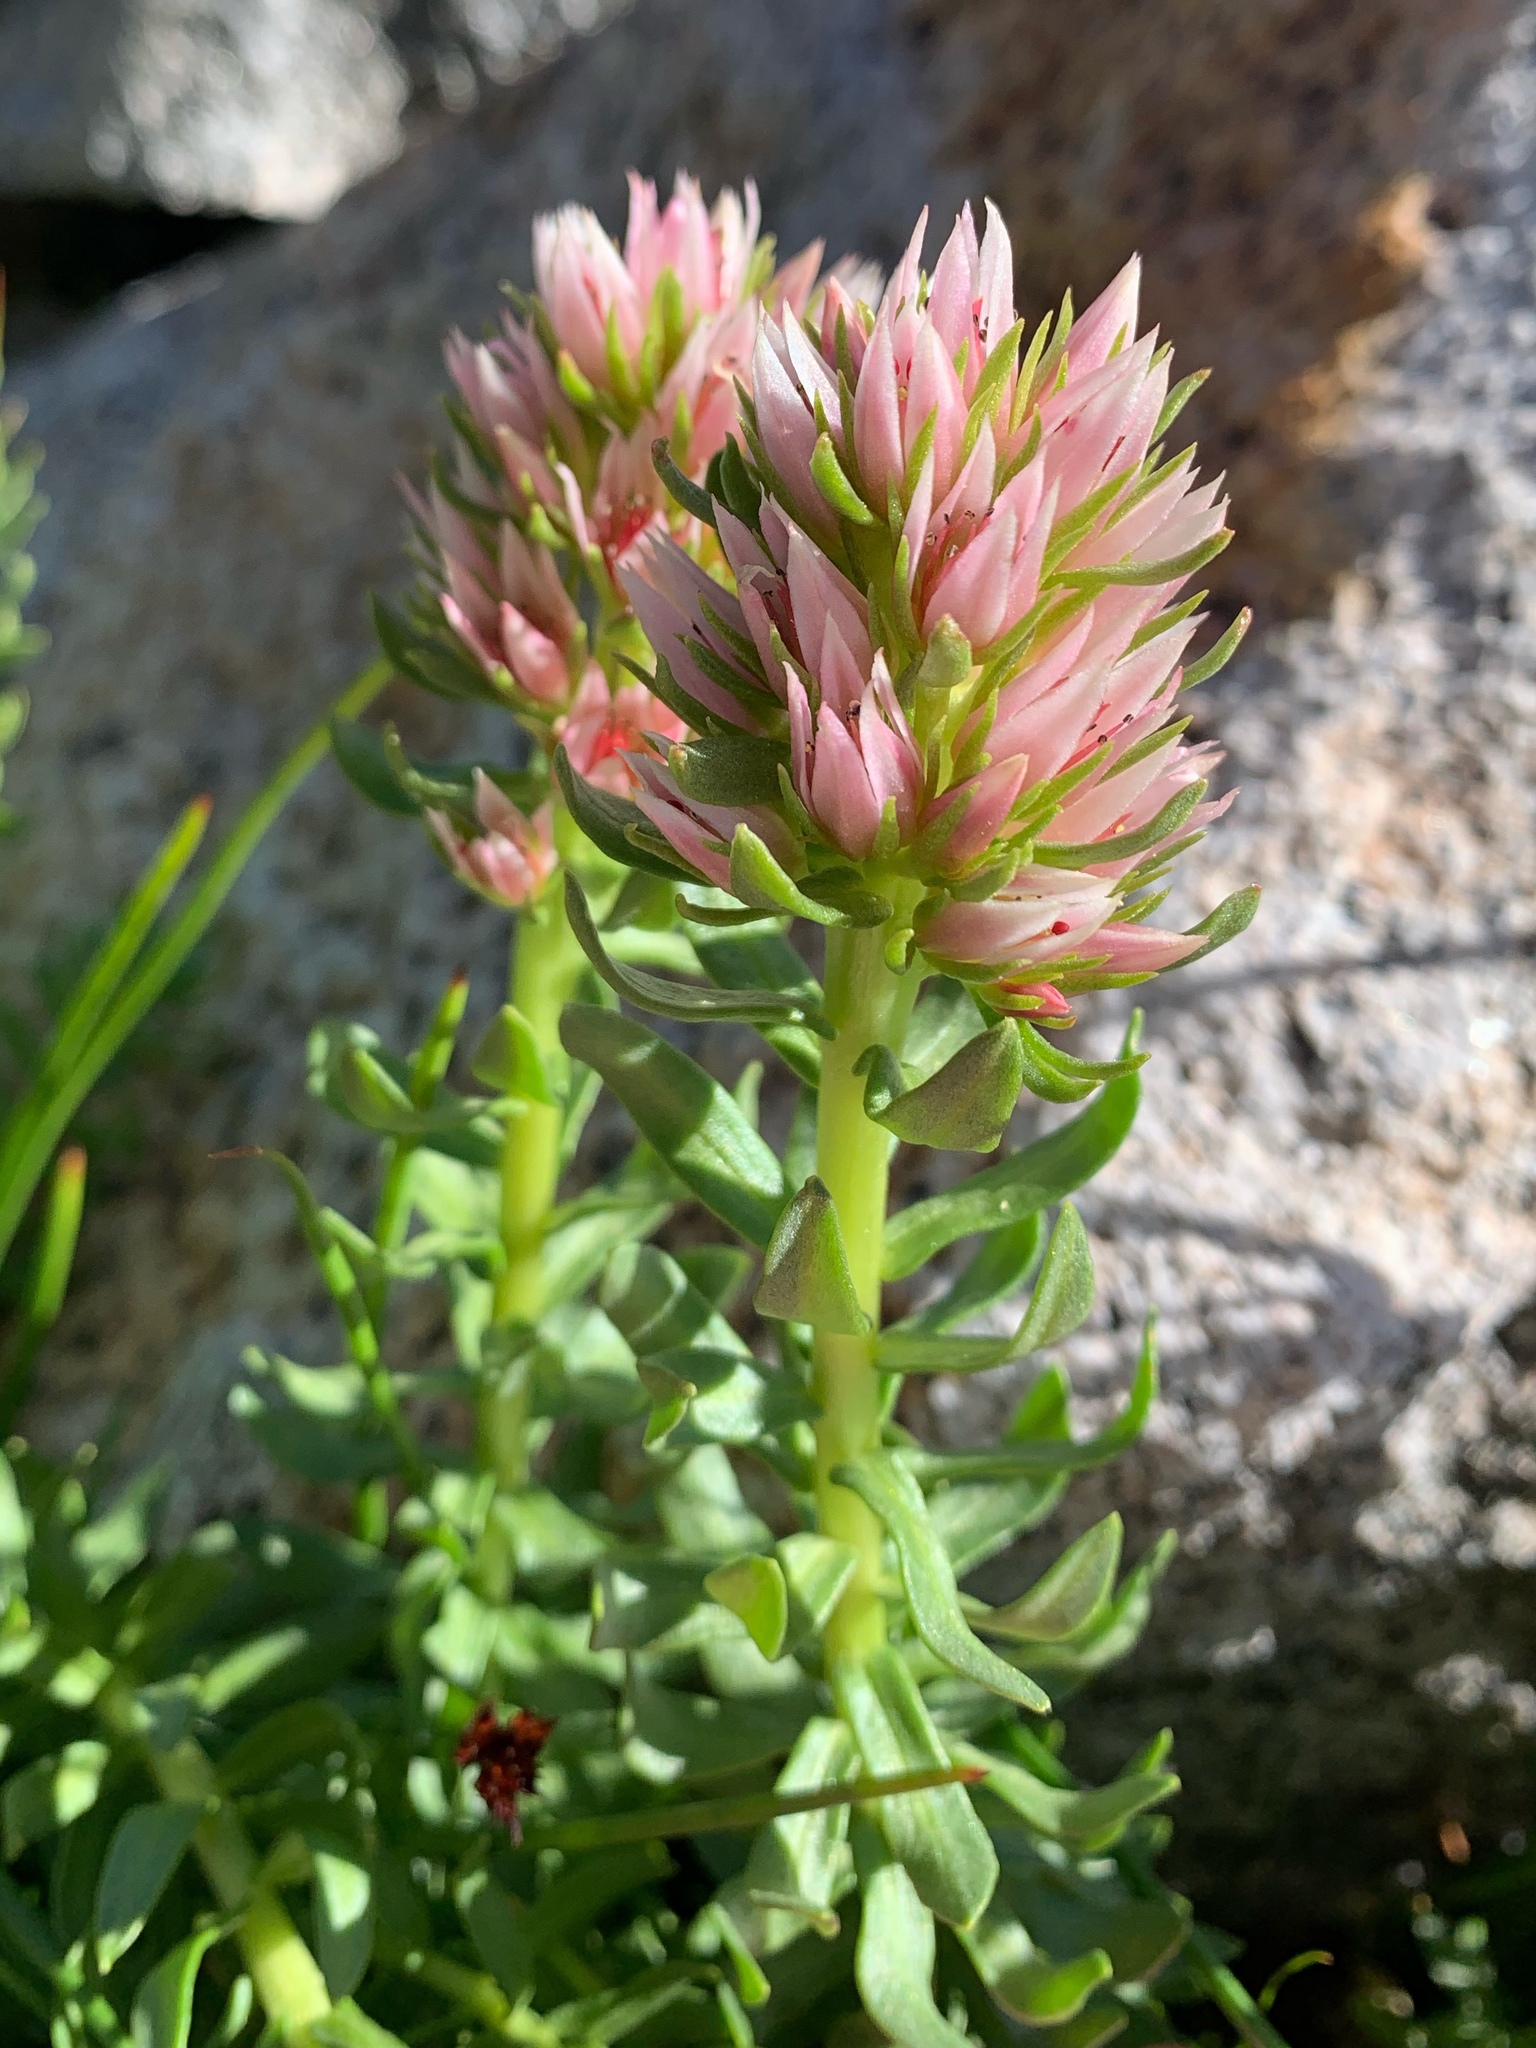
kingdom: Plantae
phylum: Tracheophyta
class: Magnoliopsida
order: Saxifragales
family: Crassulaceae
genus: Rhodiola
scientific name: Rhodiola rhodantha
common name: Red orpine
